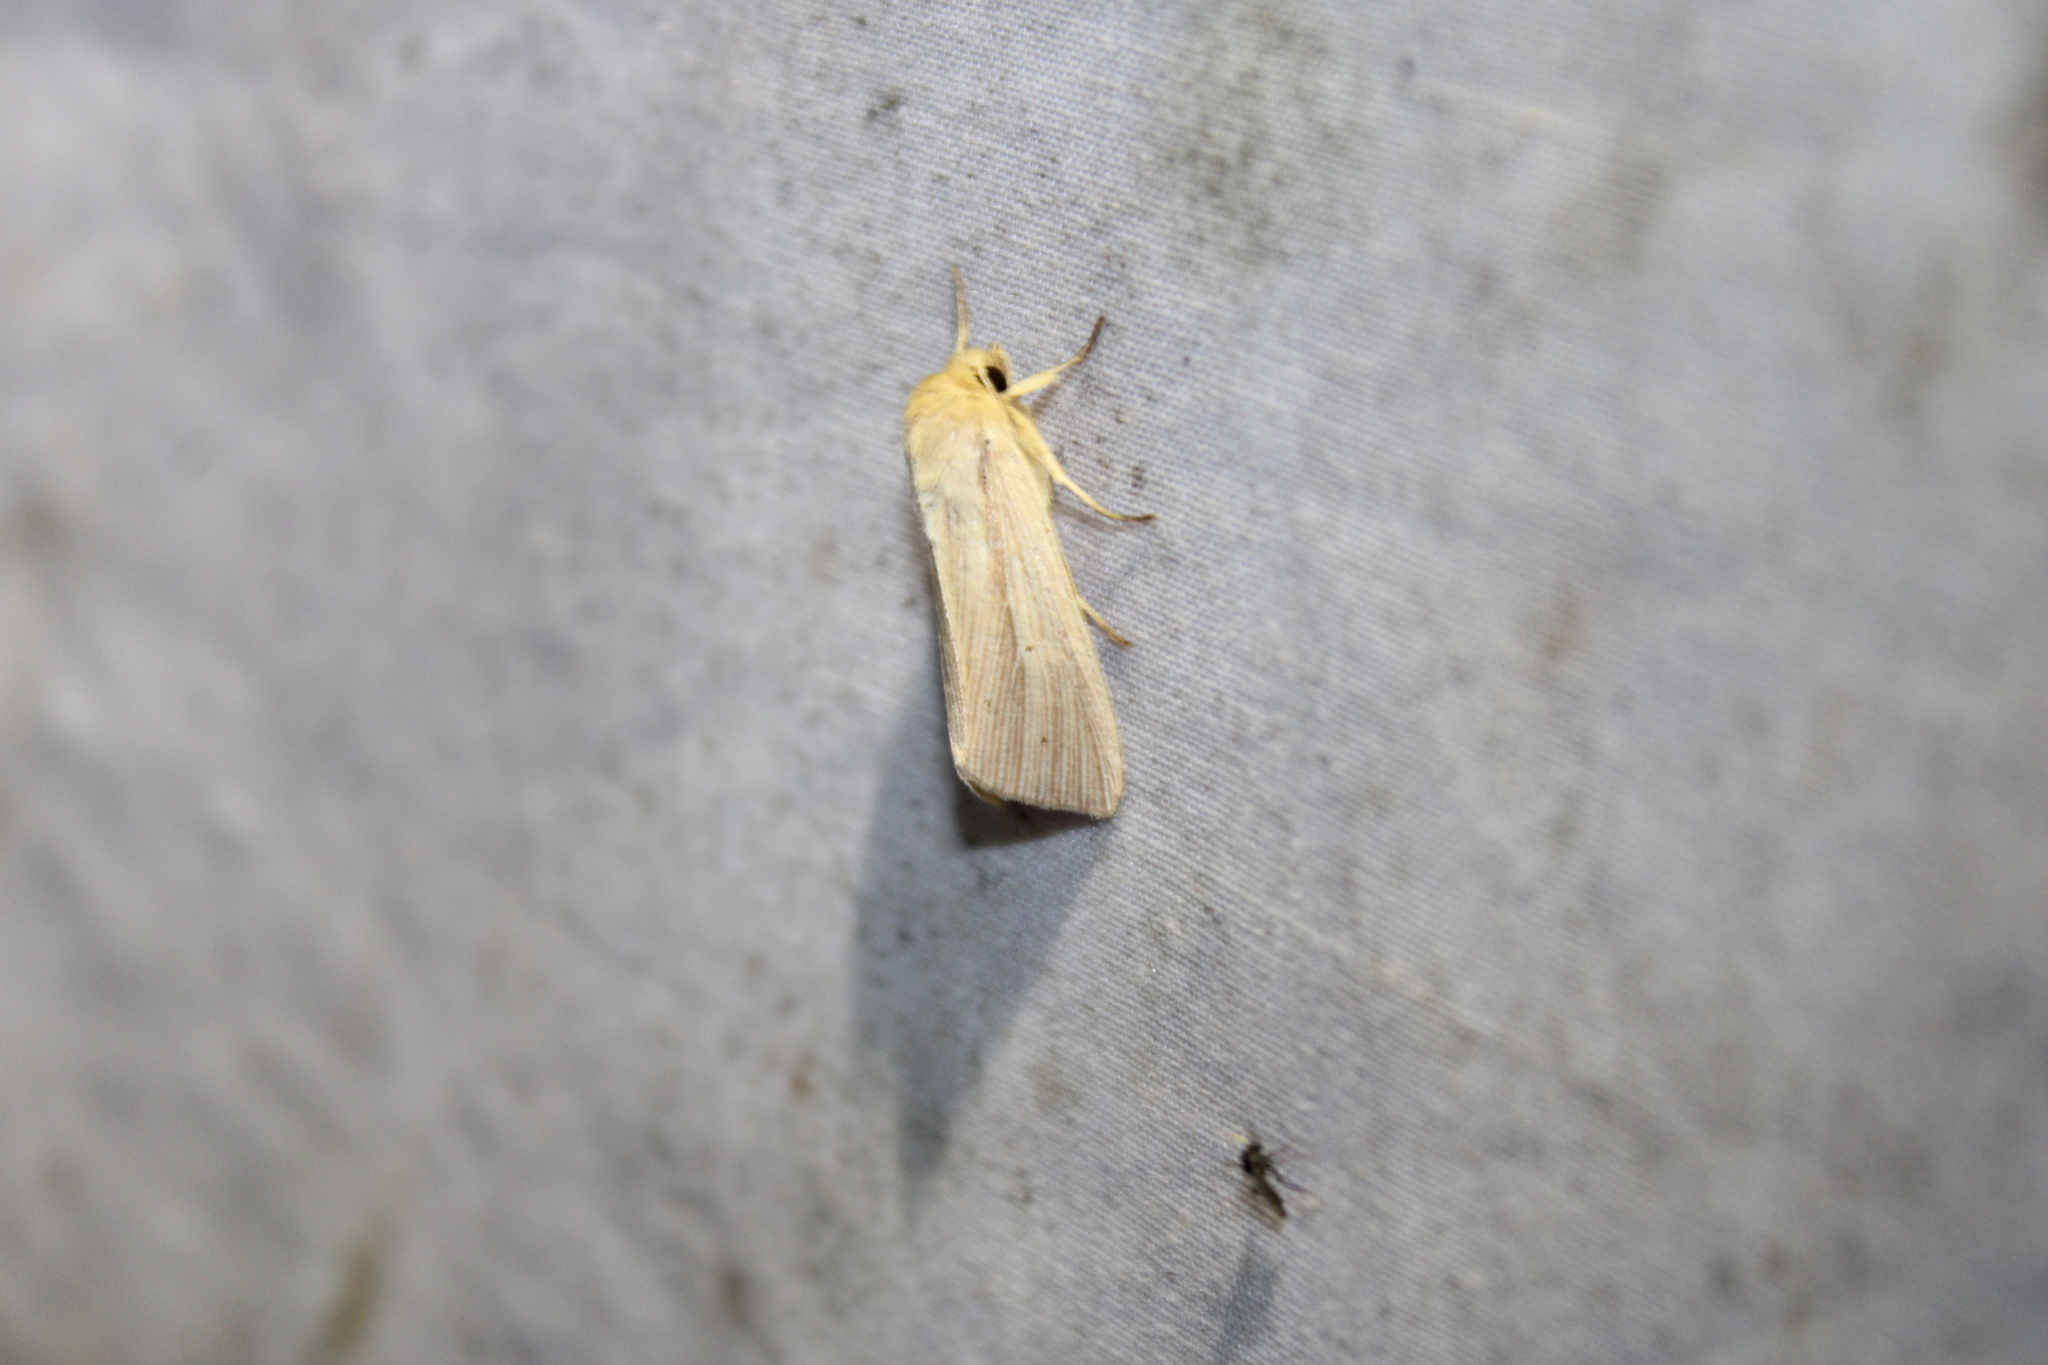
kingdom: Animalia
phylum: Arthropoda
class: Insecta
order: Lepidoptera
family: Noctuidae
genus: Mythimna
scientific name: Mythimna oxygala
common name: Lesser wainscot
